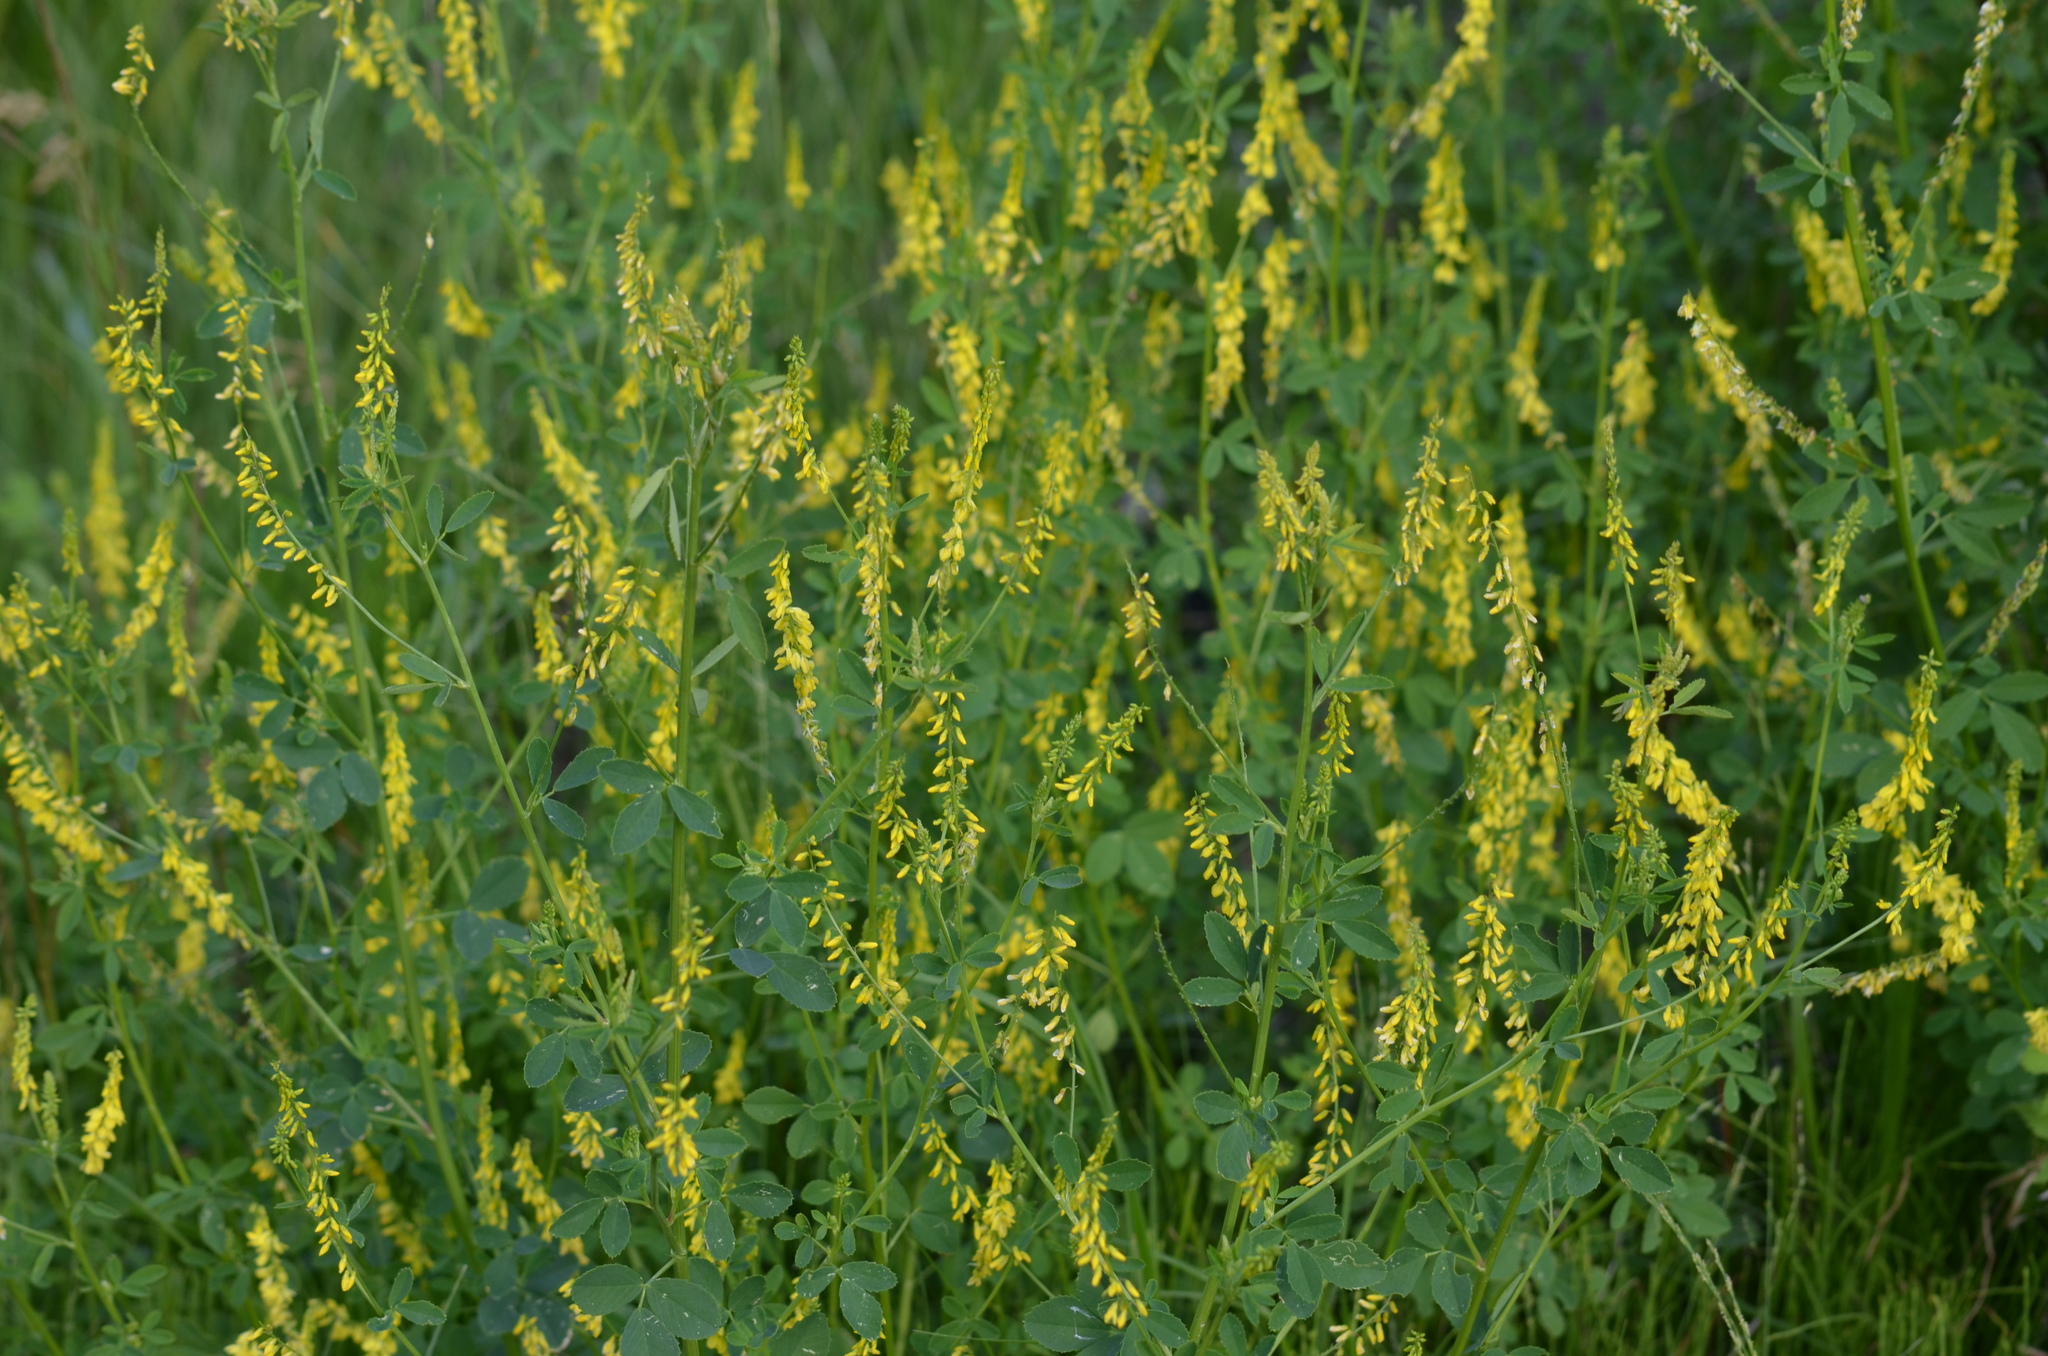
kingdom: Plantae
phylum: Tracheophyta
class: Magnoliopsida
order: Fabales
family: Fabaceae
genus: Melilotus
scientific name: Melilotus officinalis
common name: Sweetclover
